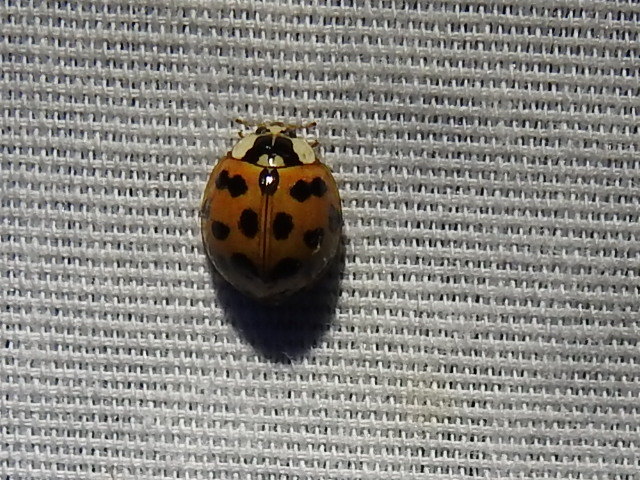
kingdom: Animalia
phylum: Arthropoda
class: Insecta
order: Coleoptera
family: Coccinellidae
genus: Harmonia
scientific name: Harmonia axyridis
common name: Harlequin ladybird
